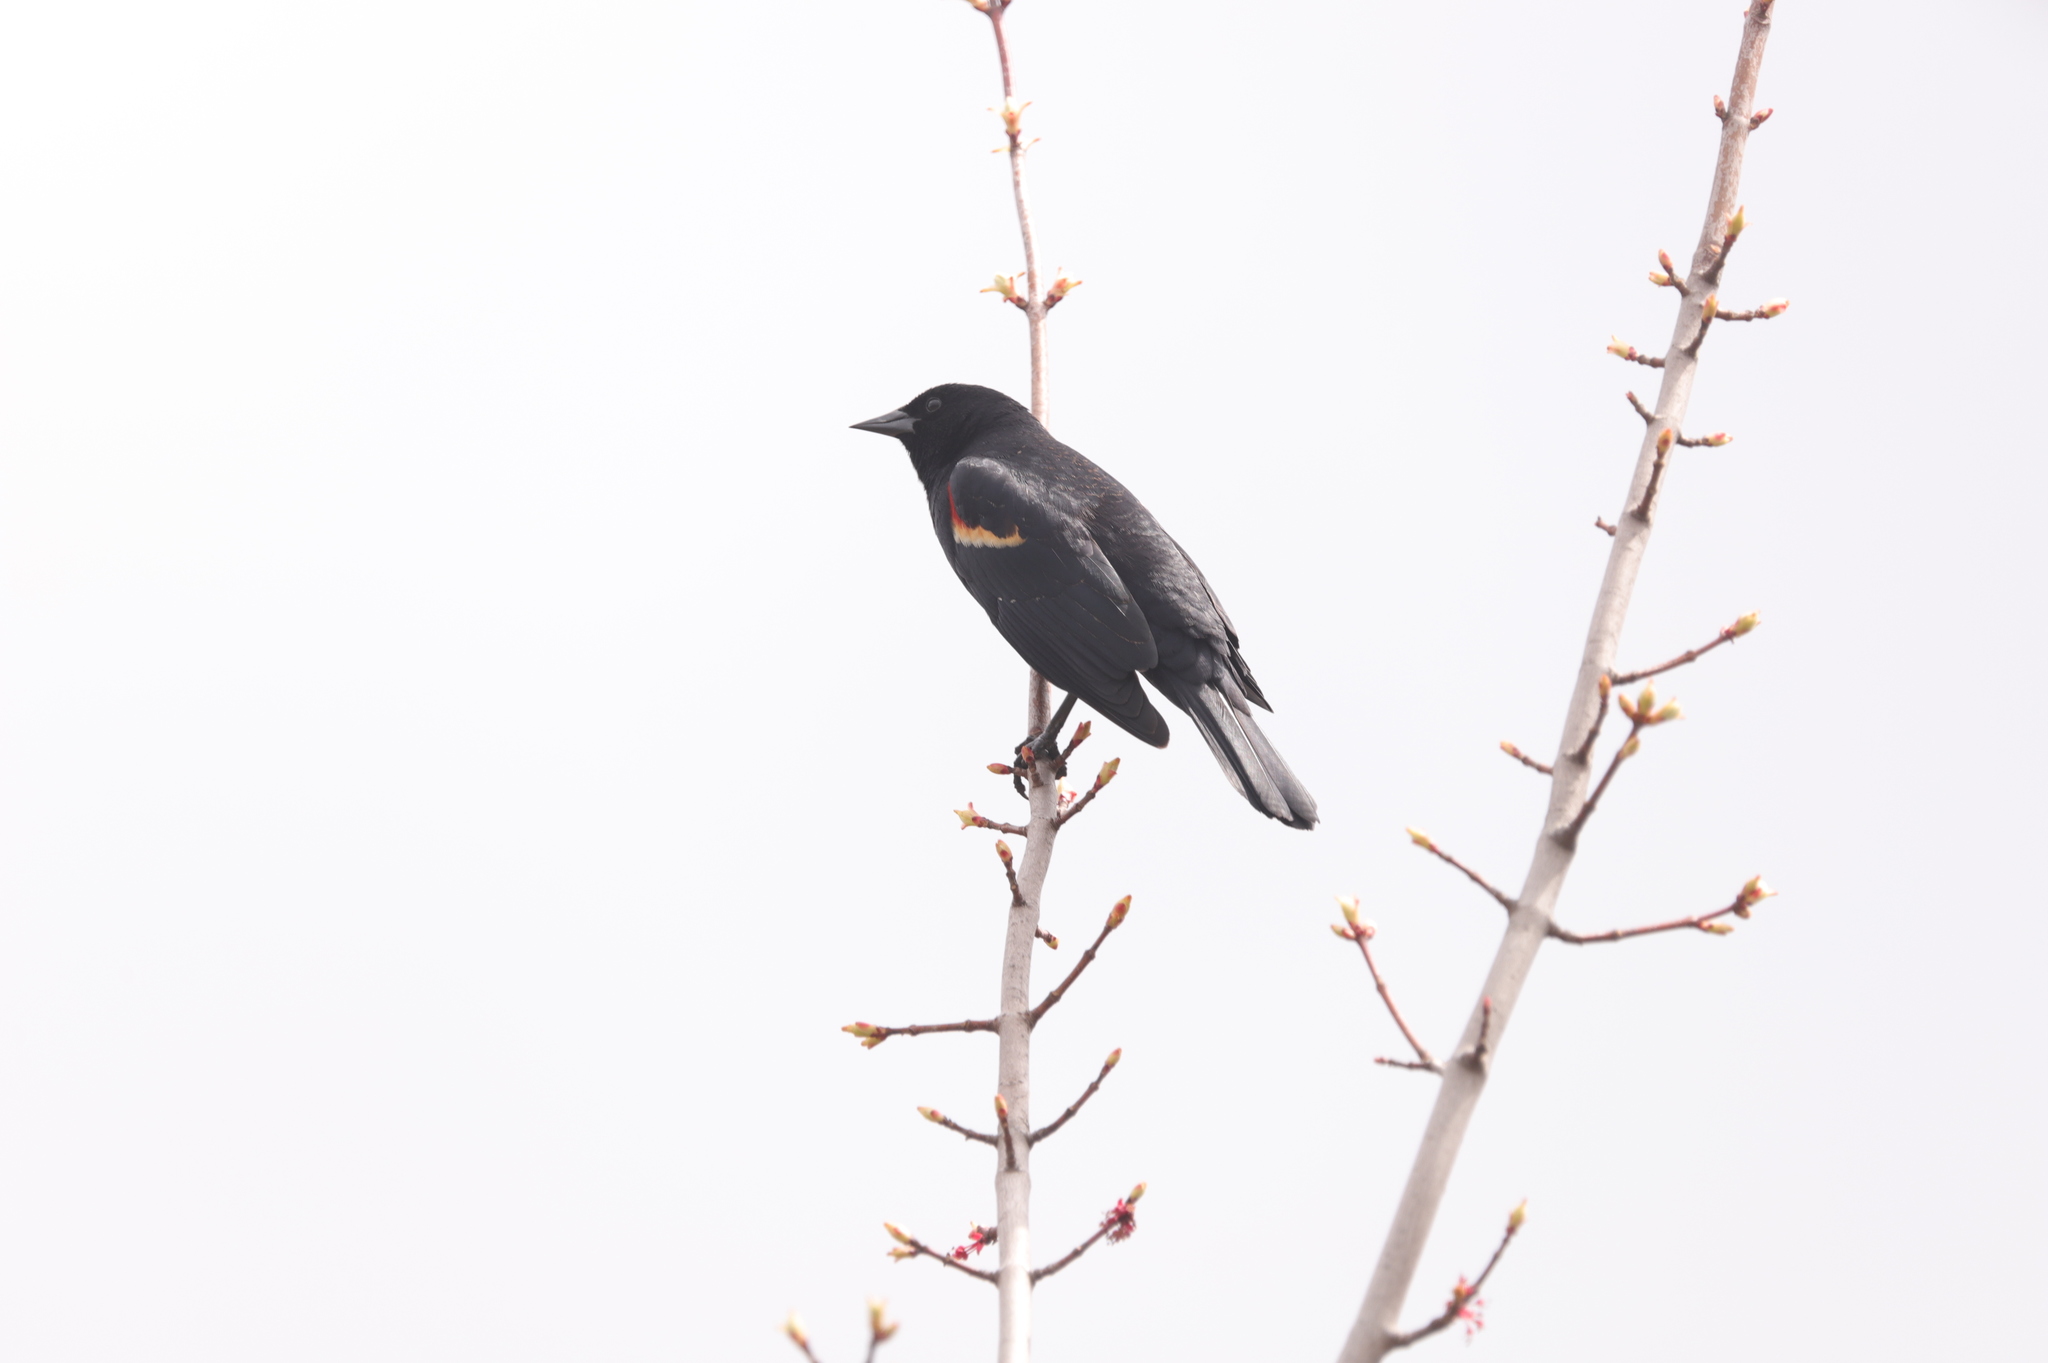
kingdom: Animalia
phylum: Chordata
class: Aves
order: Passeriformes
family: Icteridae
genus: Agelaius
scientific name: Agelaius phoeniceus
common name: Red-winged blackbird
